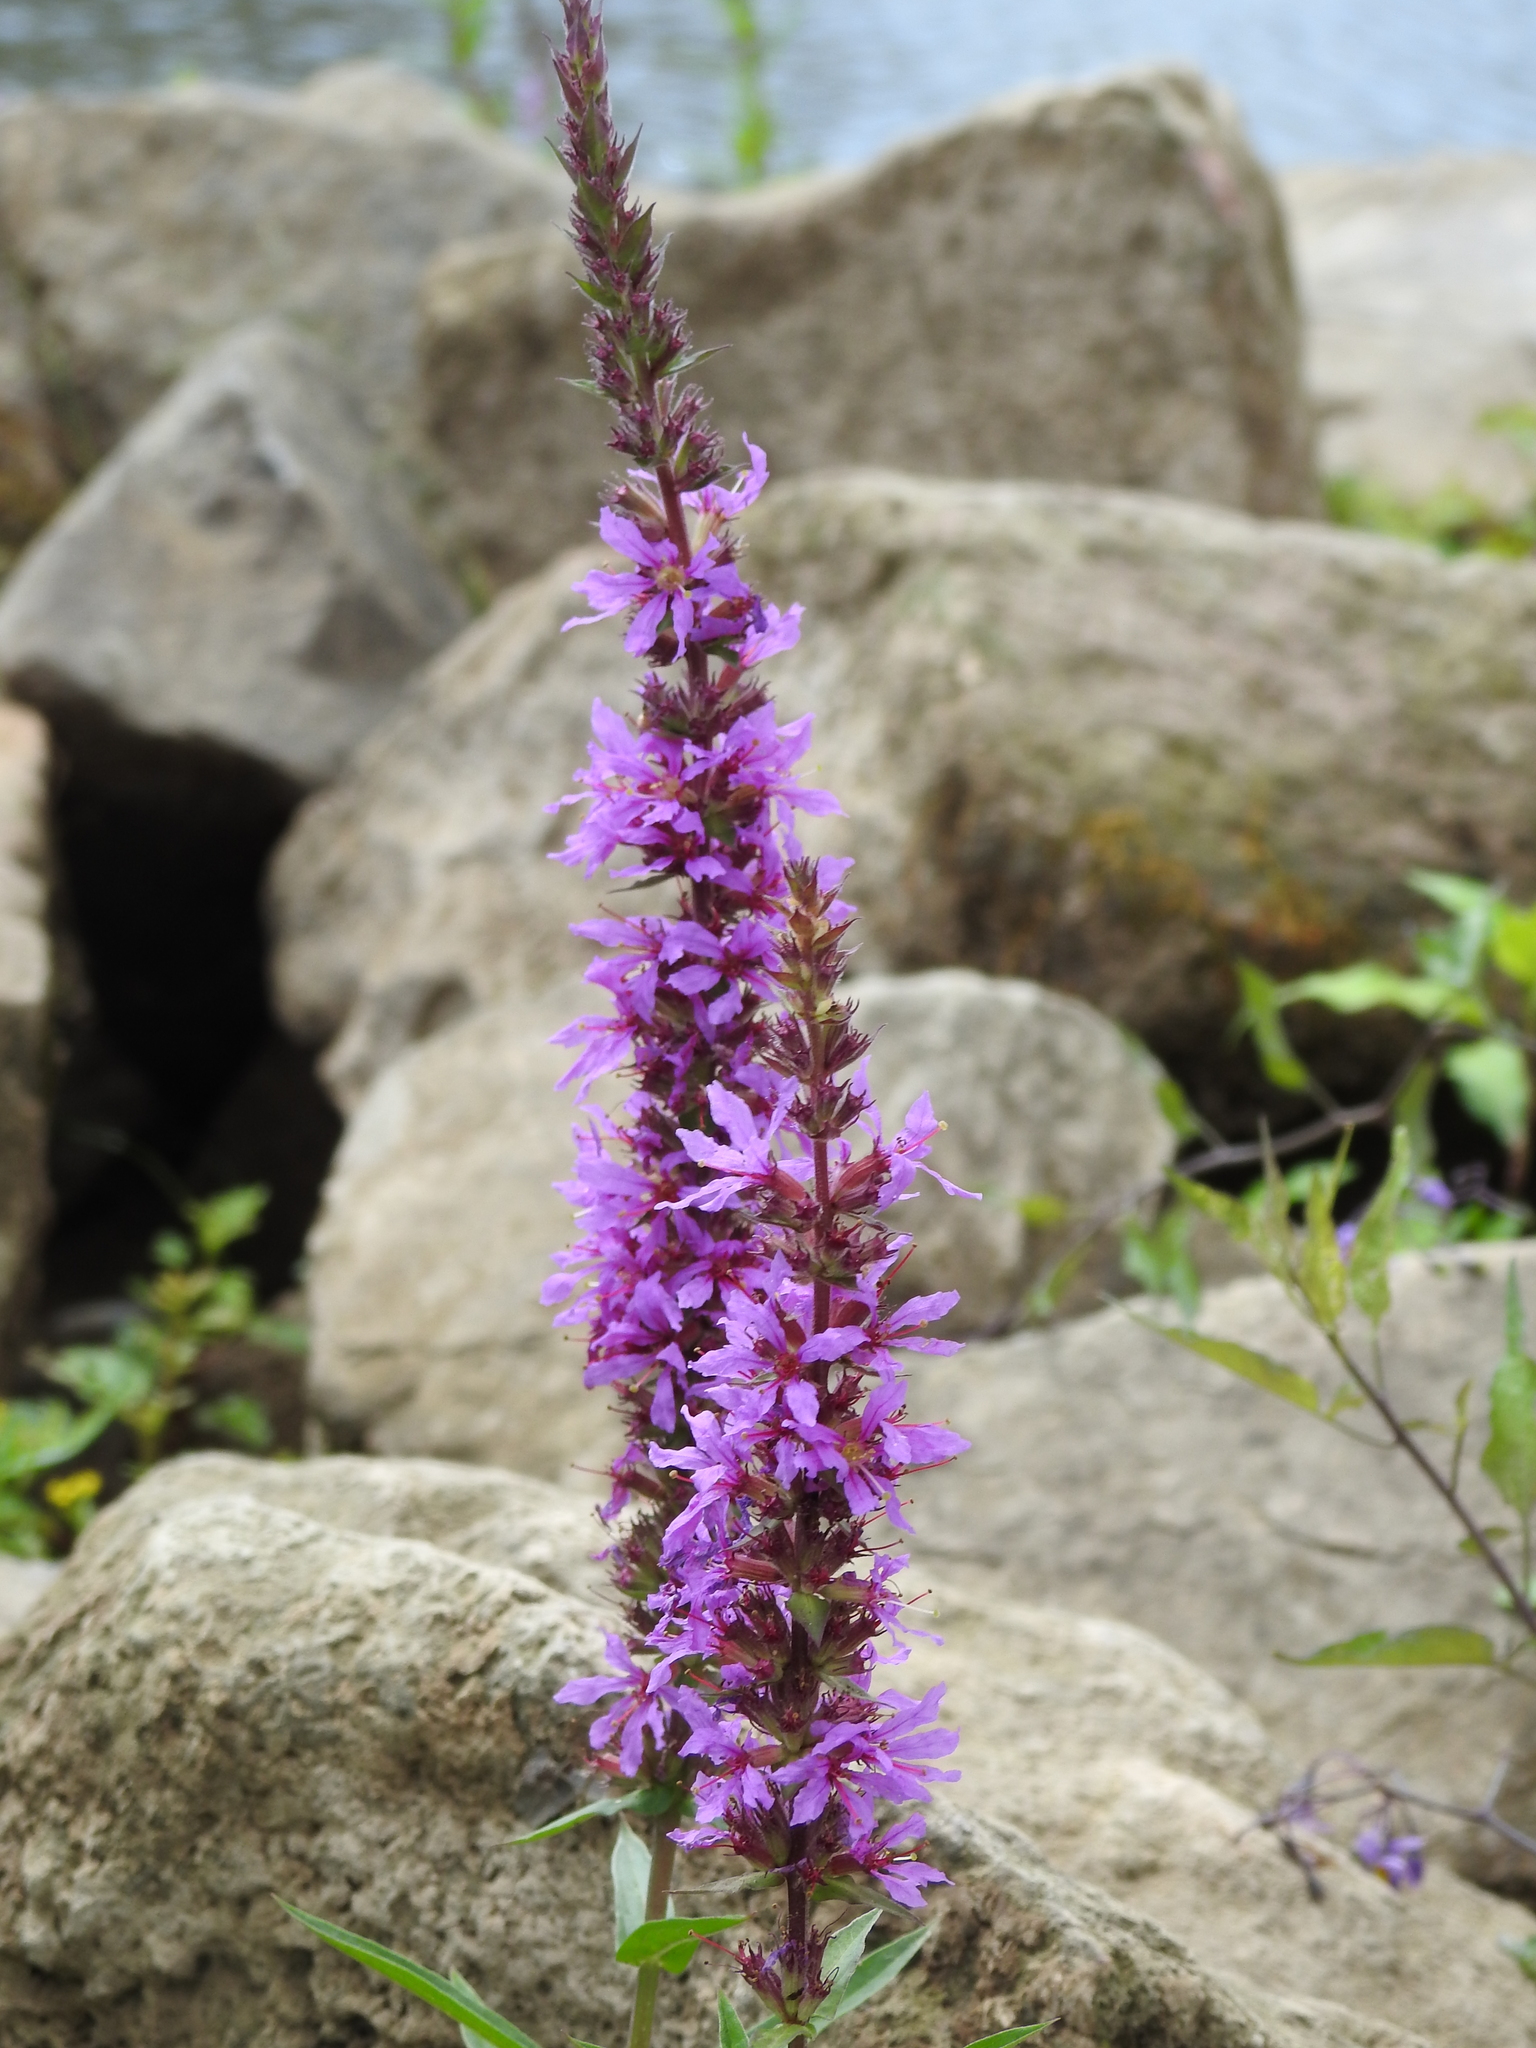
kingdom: Plantae
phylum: Tracheophyta
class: Magnoliopsida
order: Myrtales
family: Lythraceae
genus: Lythrum
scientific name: Lythrum salicaria
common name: Purple loosestrife
